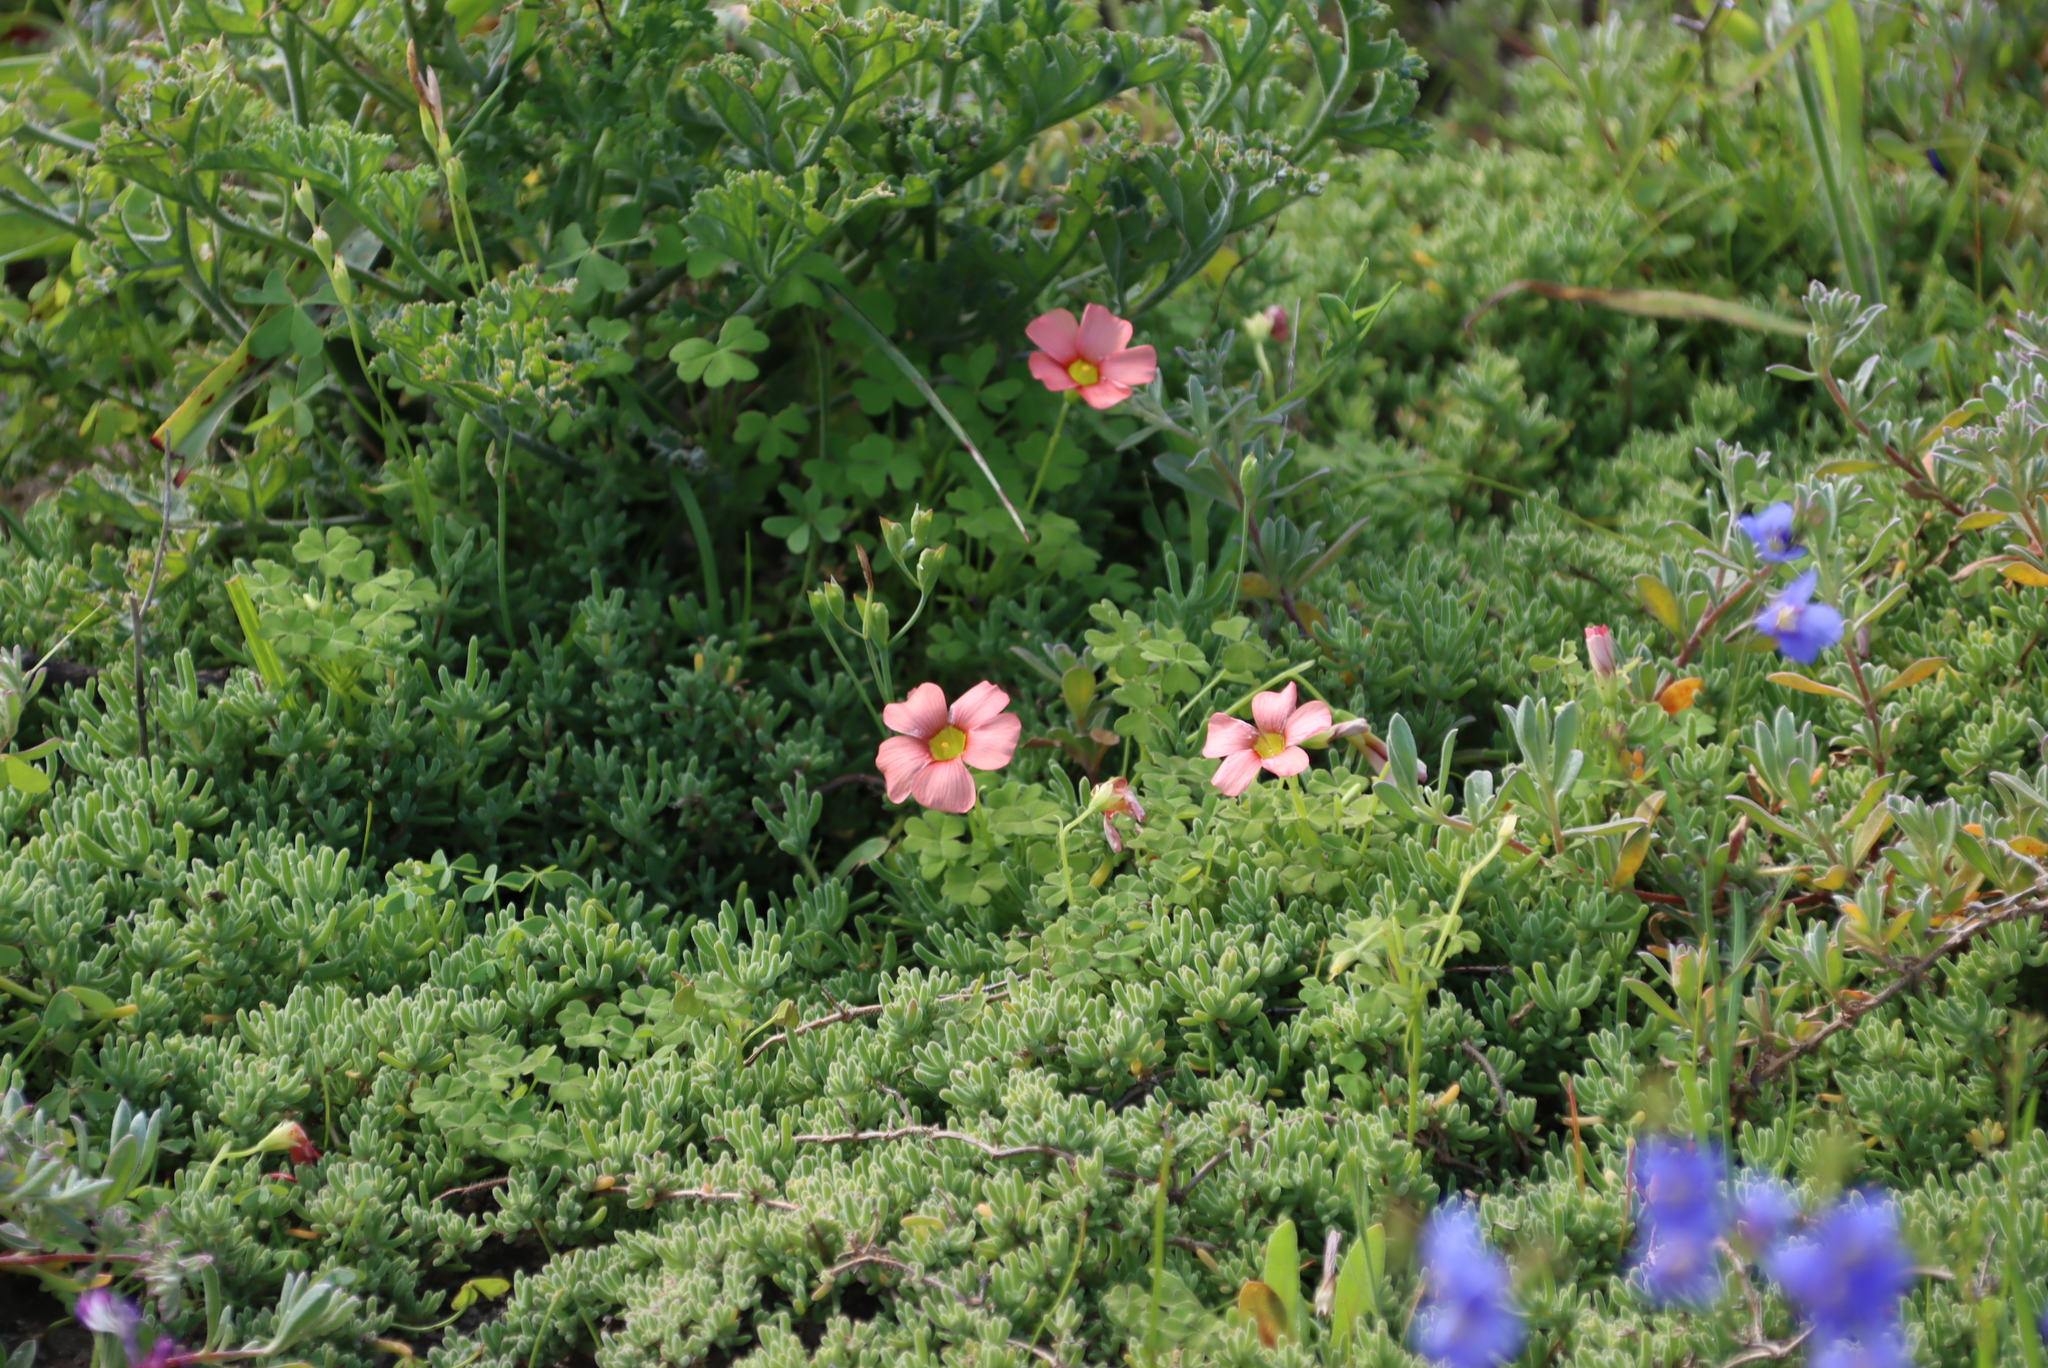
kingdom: Plantae
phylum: Tracheophyta
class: Magnoliopsida
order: Oxalidales
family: Oxalidaceae
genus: Oxalis
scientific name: Oxalis obtusa
